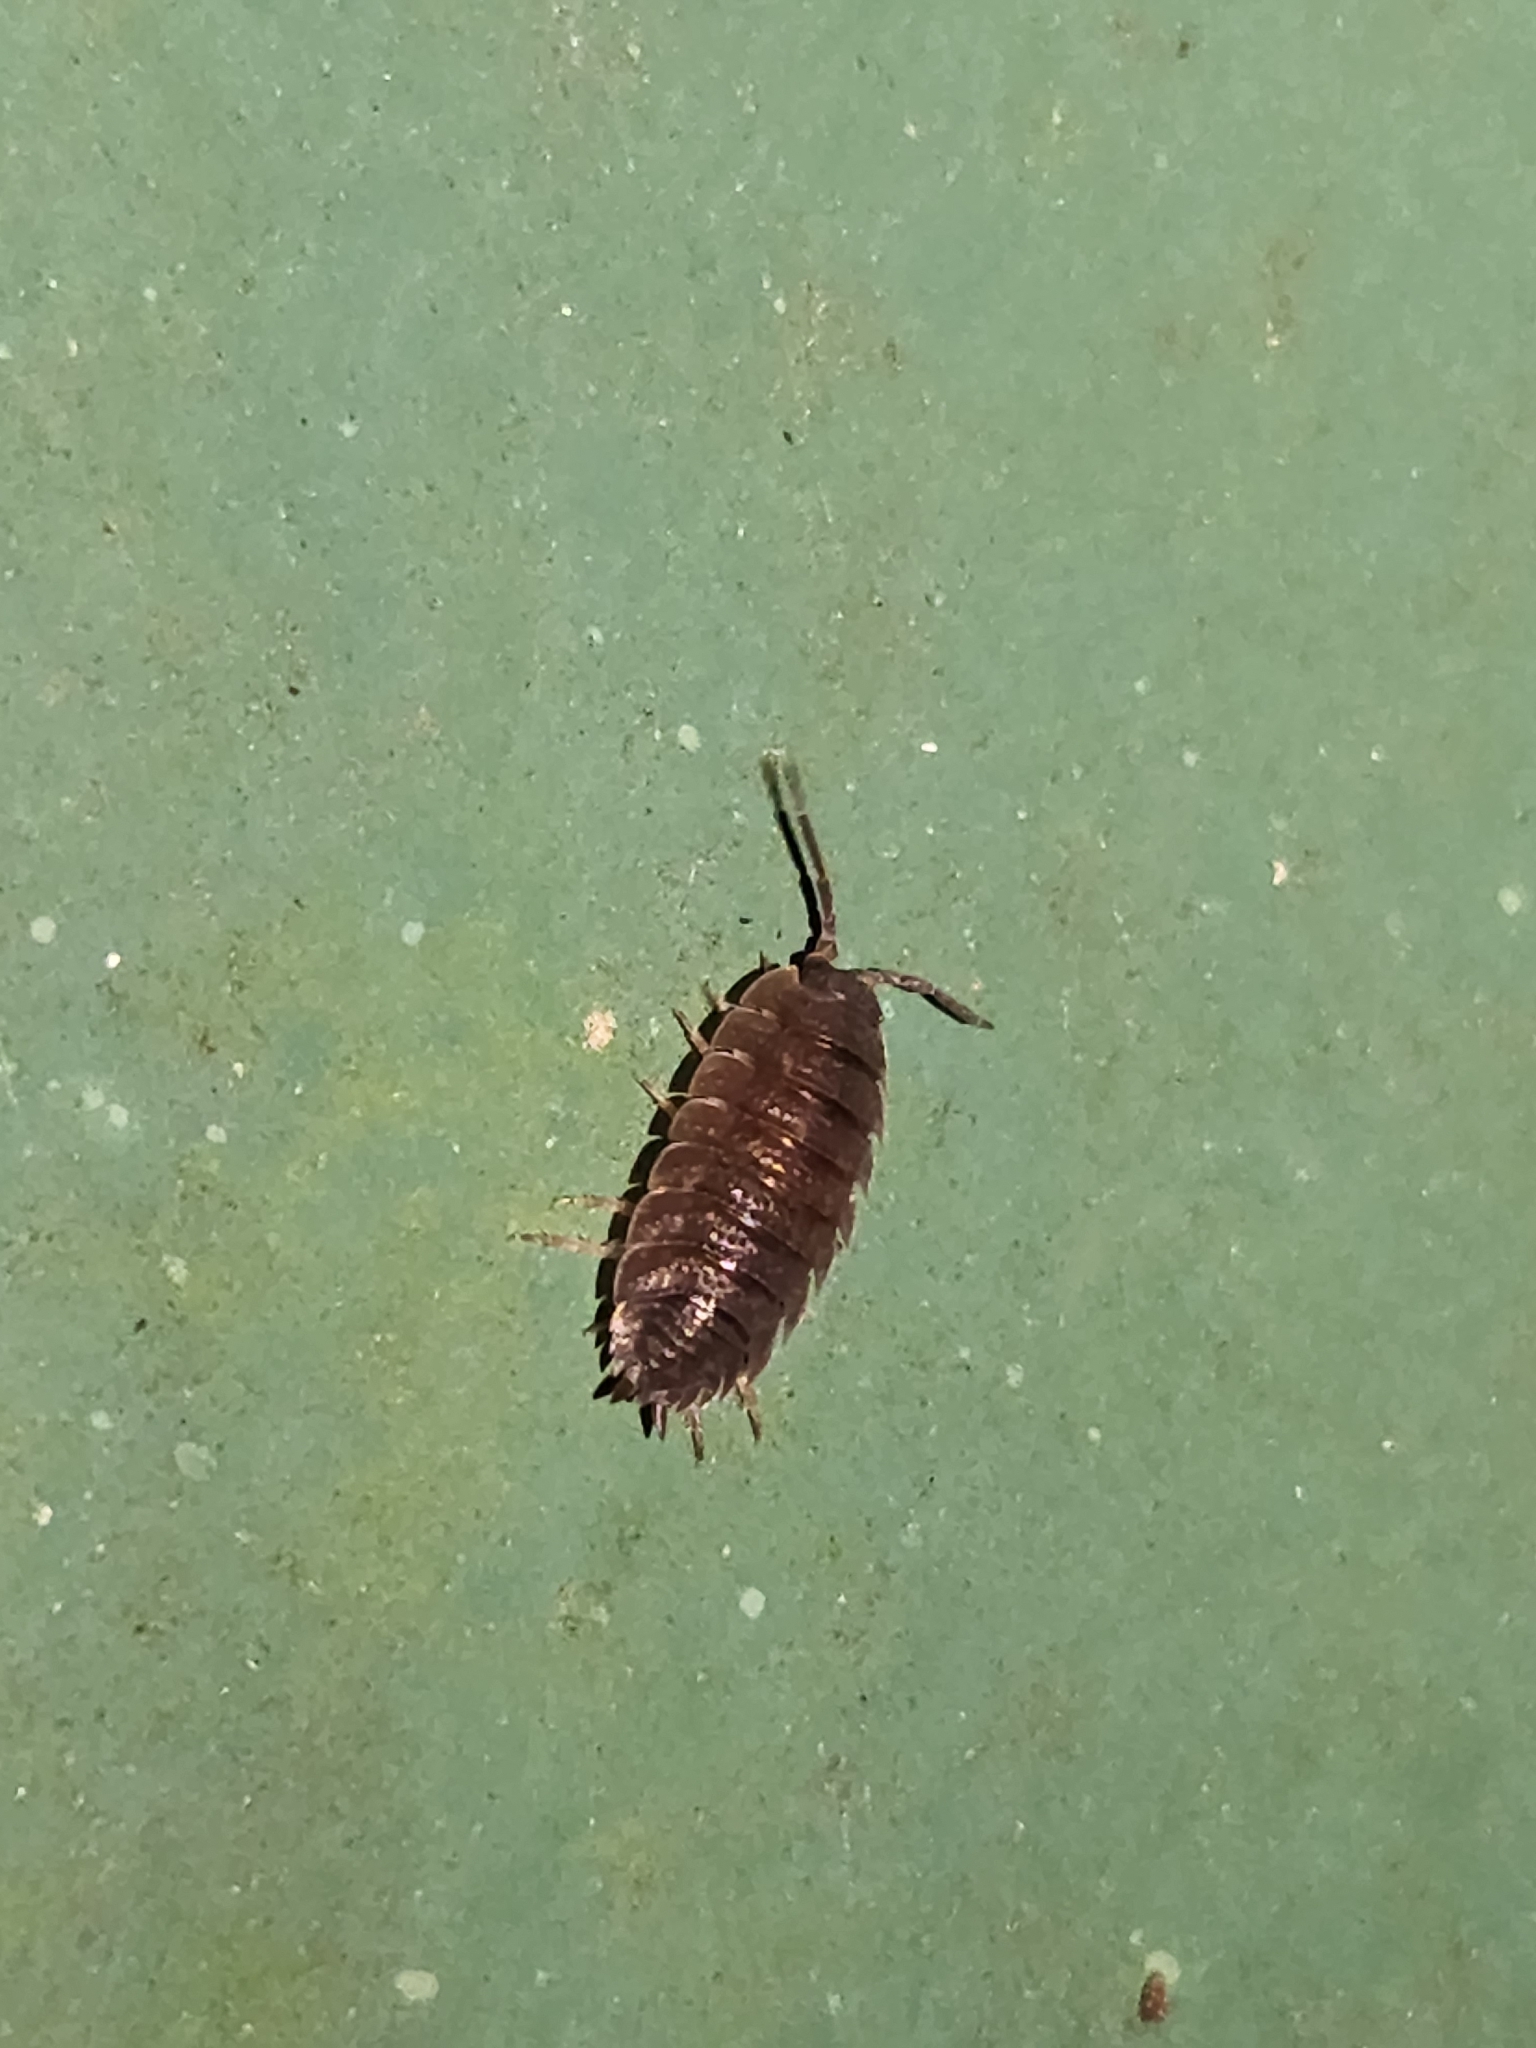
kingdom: Animalia
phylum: Arthropoda
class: Malacostraca
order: Isopoda
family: Porcellionidae
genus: Porcellio
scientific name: Porcellio scaber
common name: Common rough woodlouse
